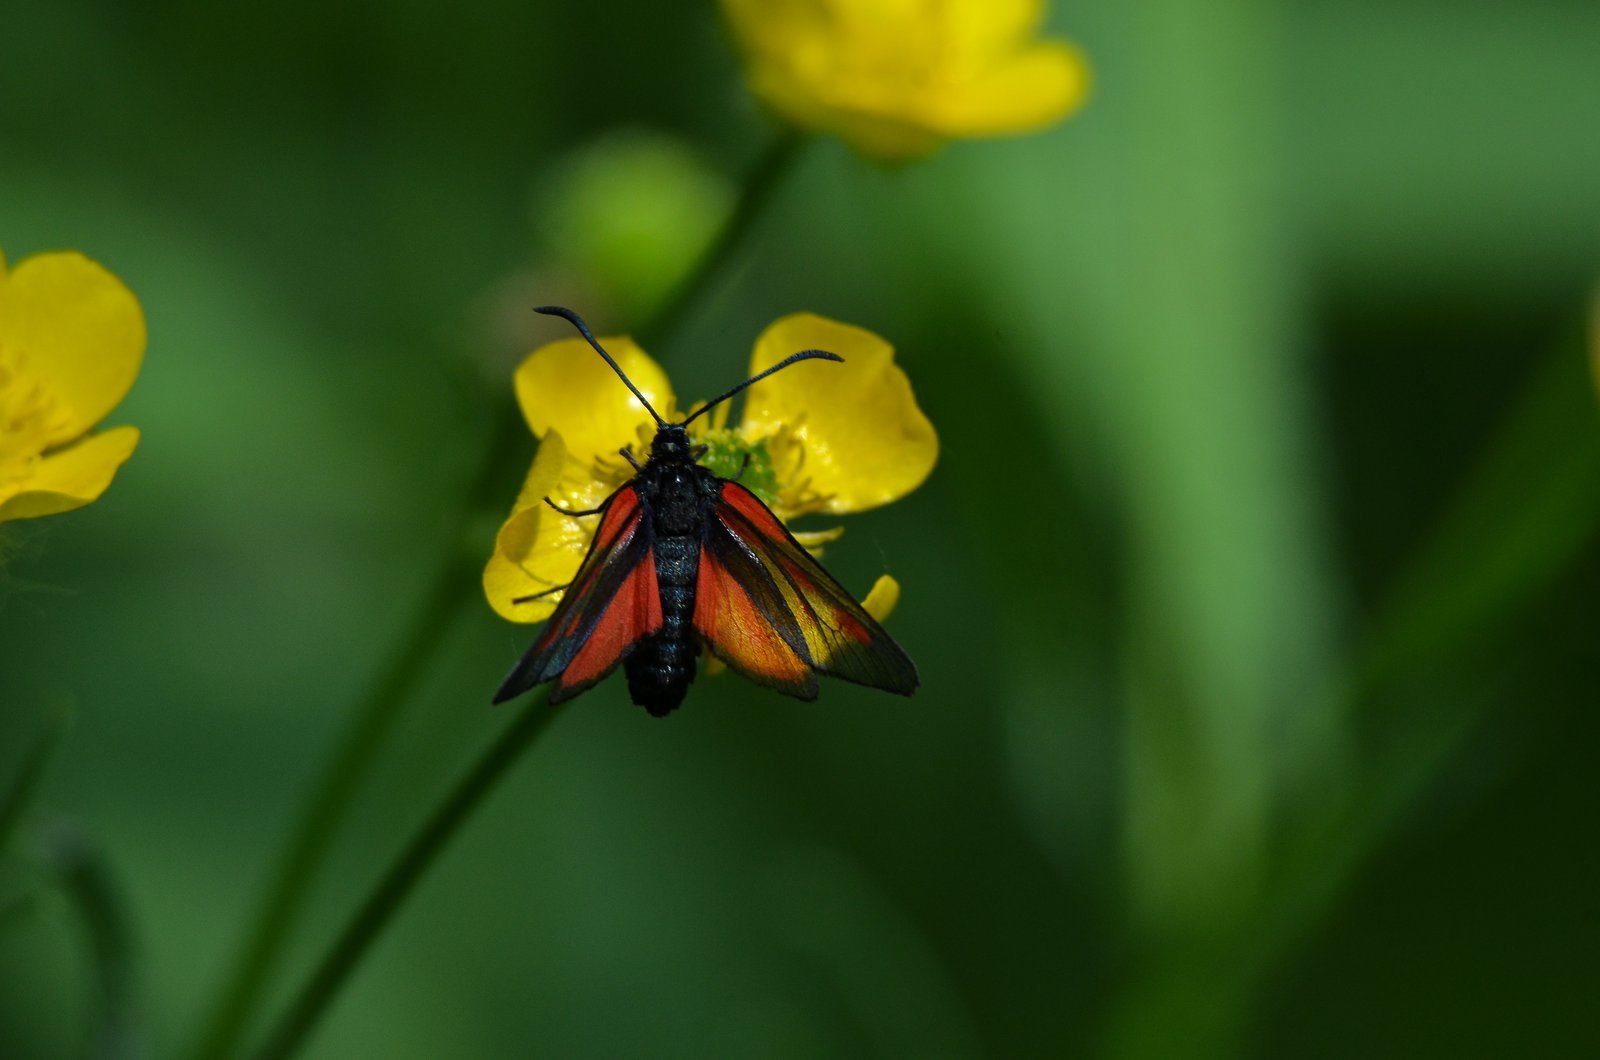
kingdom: Animalia
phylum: Arthropoda
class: Insecta
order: Lepidoptera
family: Zygaenidae
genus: Zygaena
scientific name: Zygaena osterodensis
